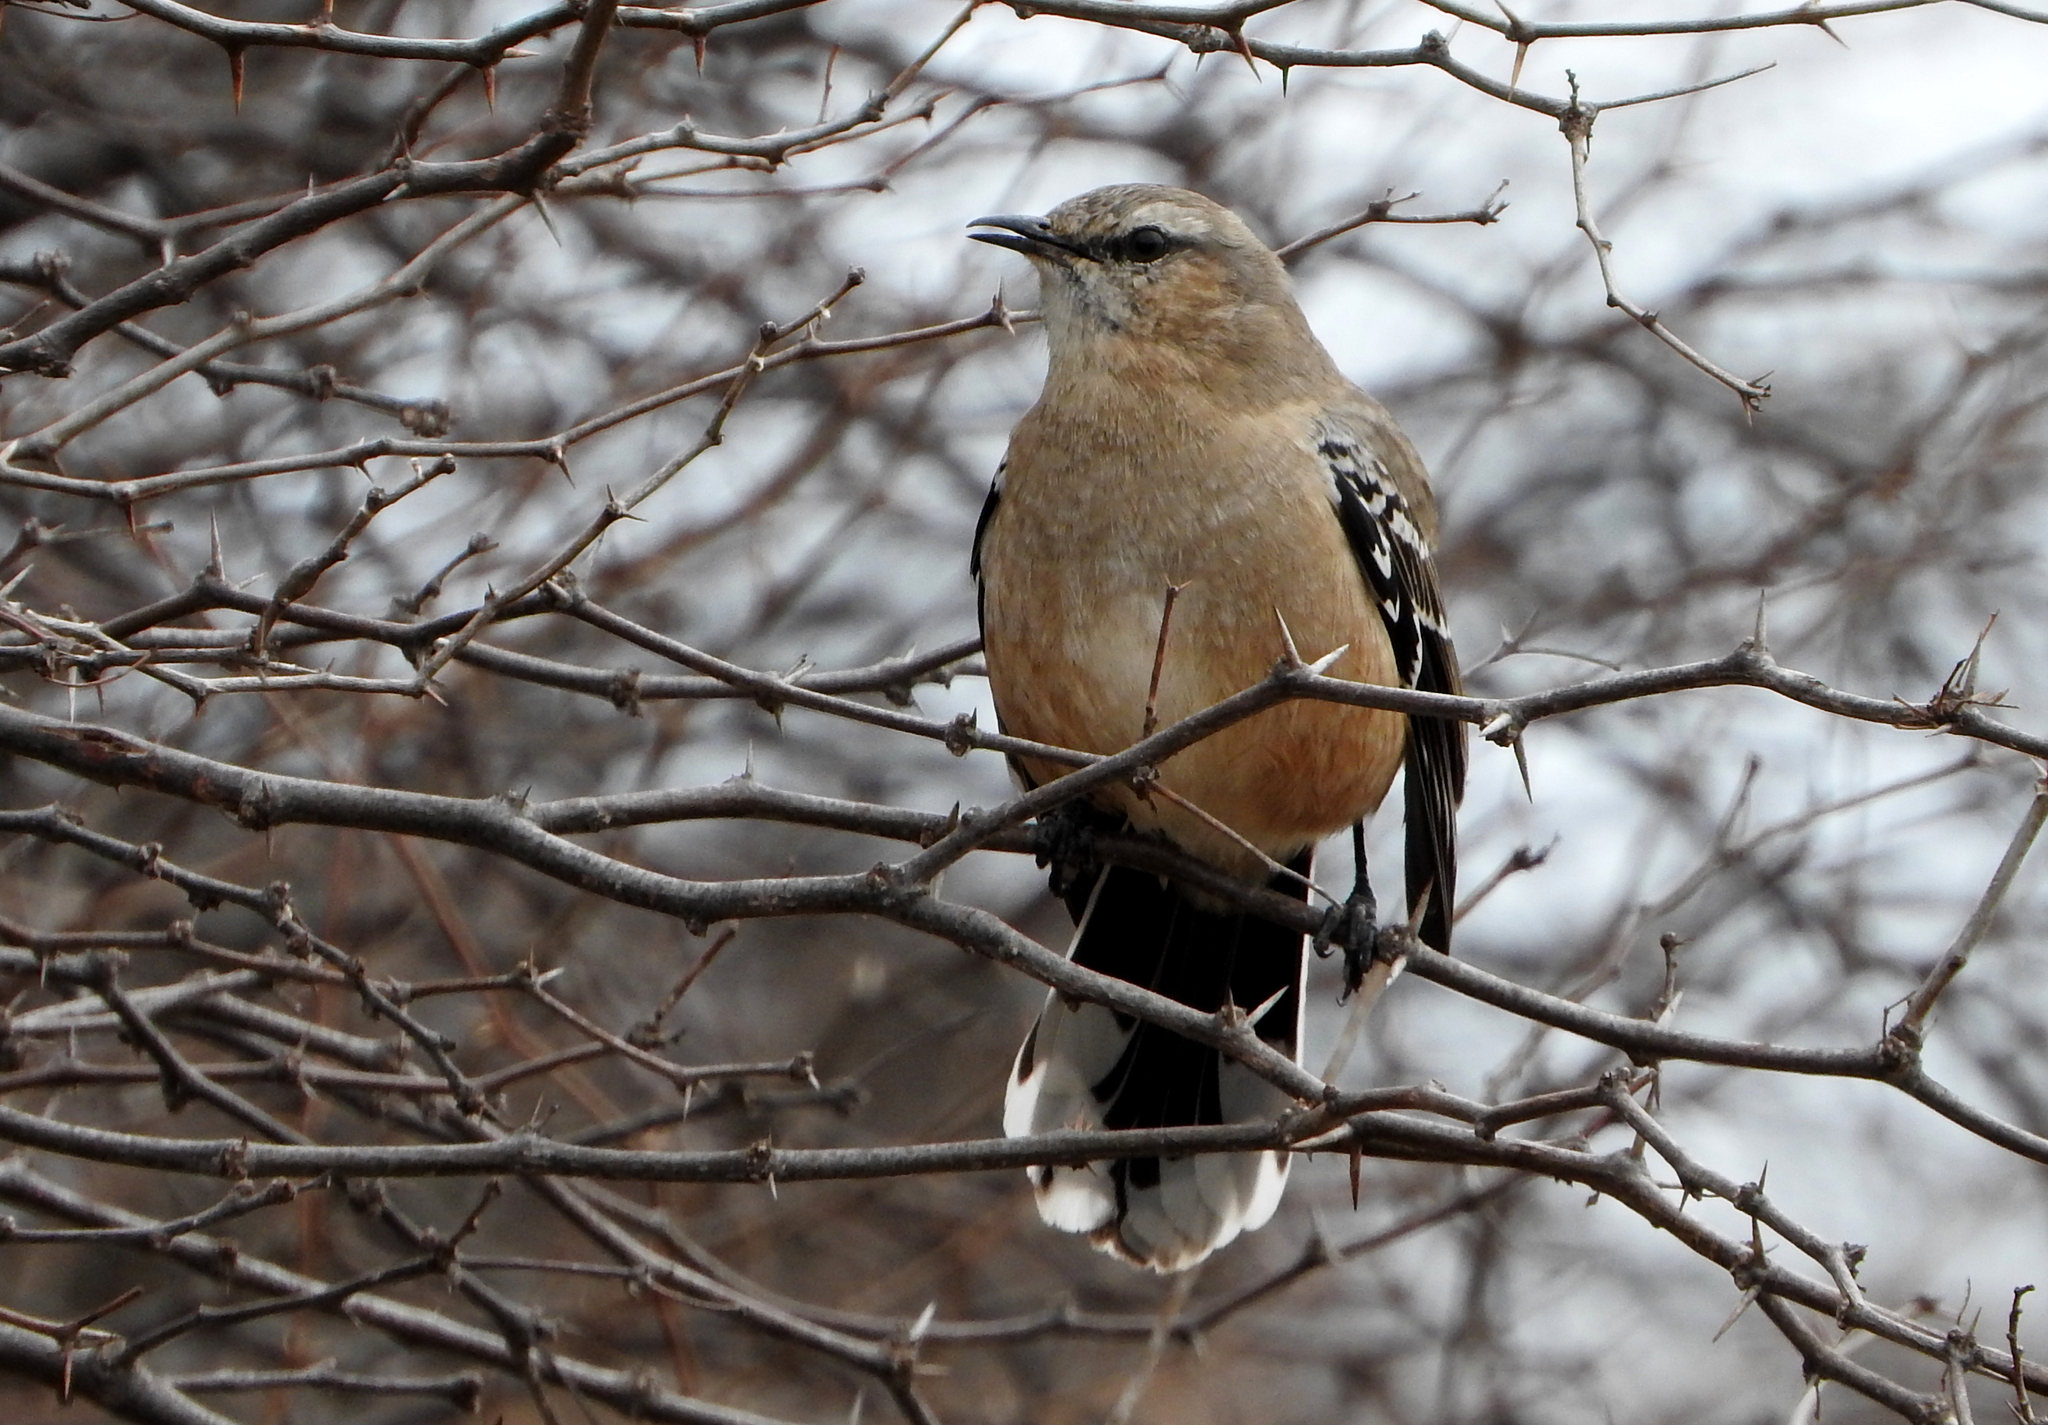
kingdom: Animalia
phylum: Chordata
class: Aves
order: Passeriformes
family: Mimidae
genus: Mimus
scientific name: Mimus patagonicus
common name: Patagonian mockingbird
